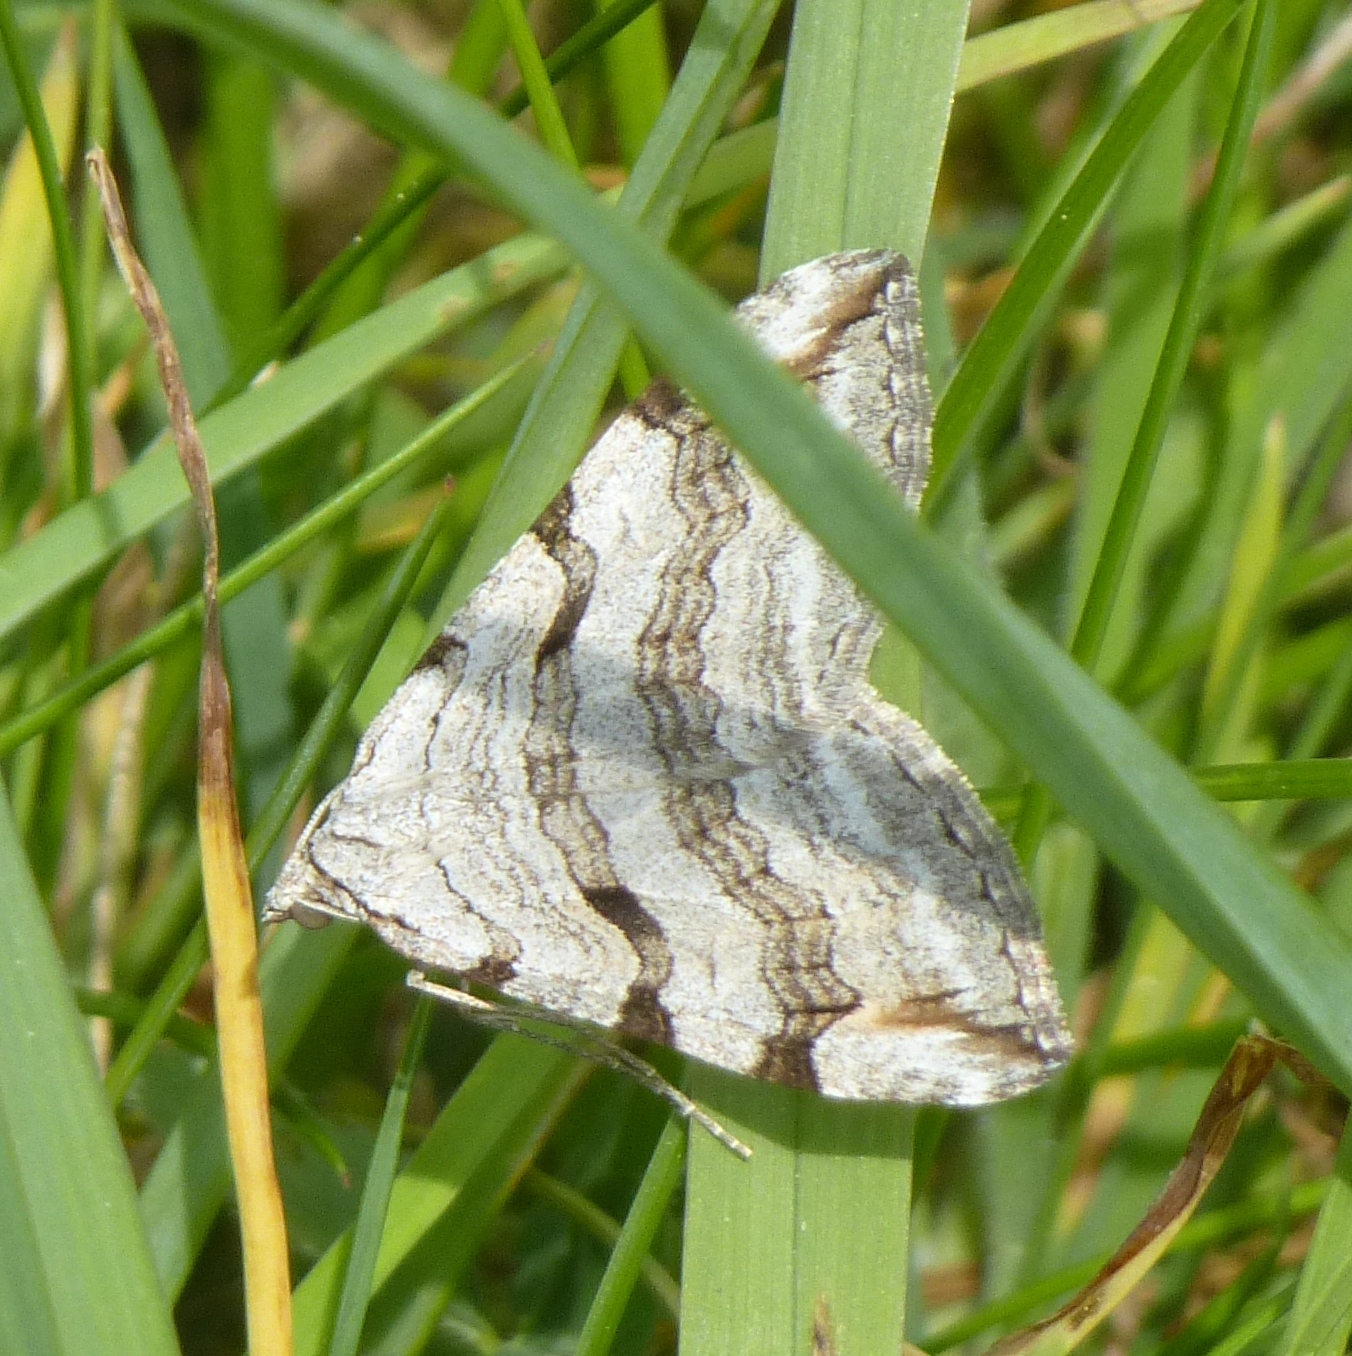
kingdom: Animalia
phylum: Arthropoda
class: Insecta
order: Lepidoptera
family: Geometridae
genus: Aplocera
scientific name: Aplocera plagiata
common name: Treble-bar
